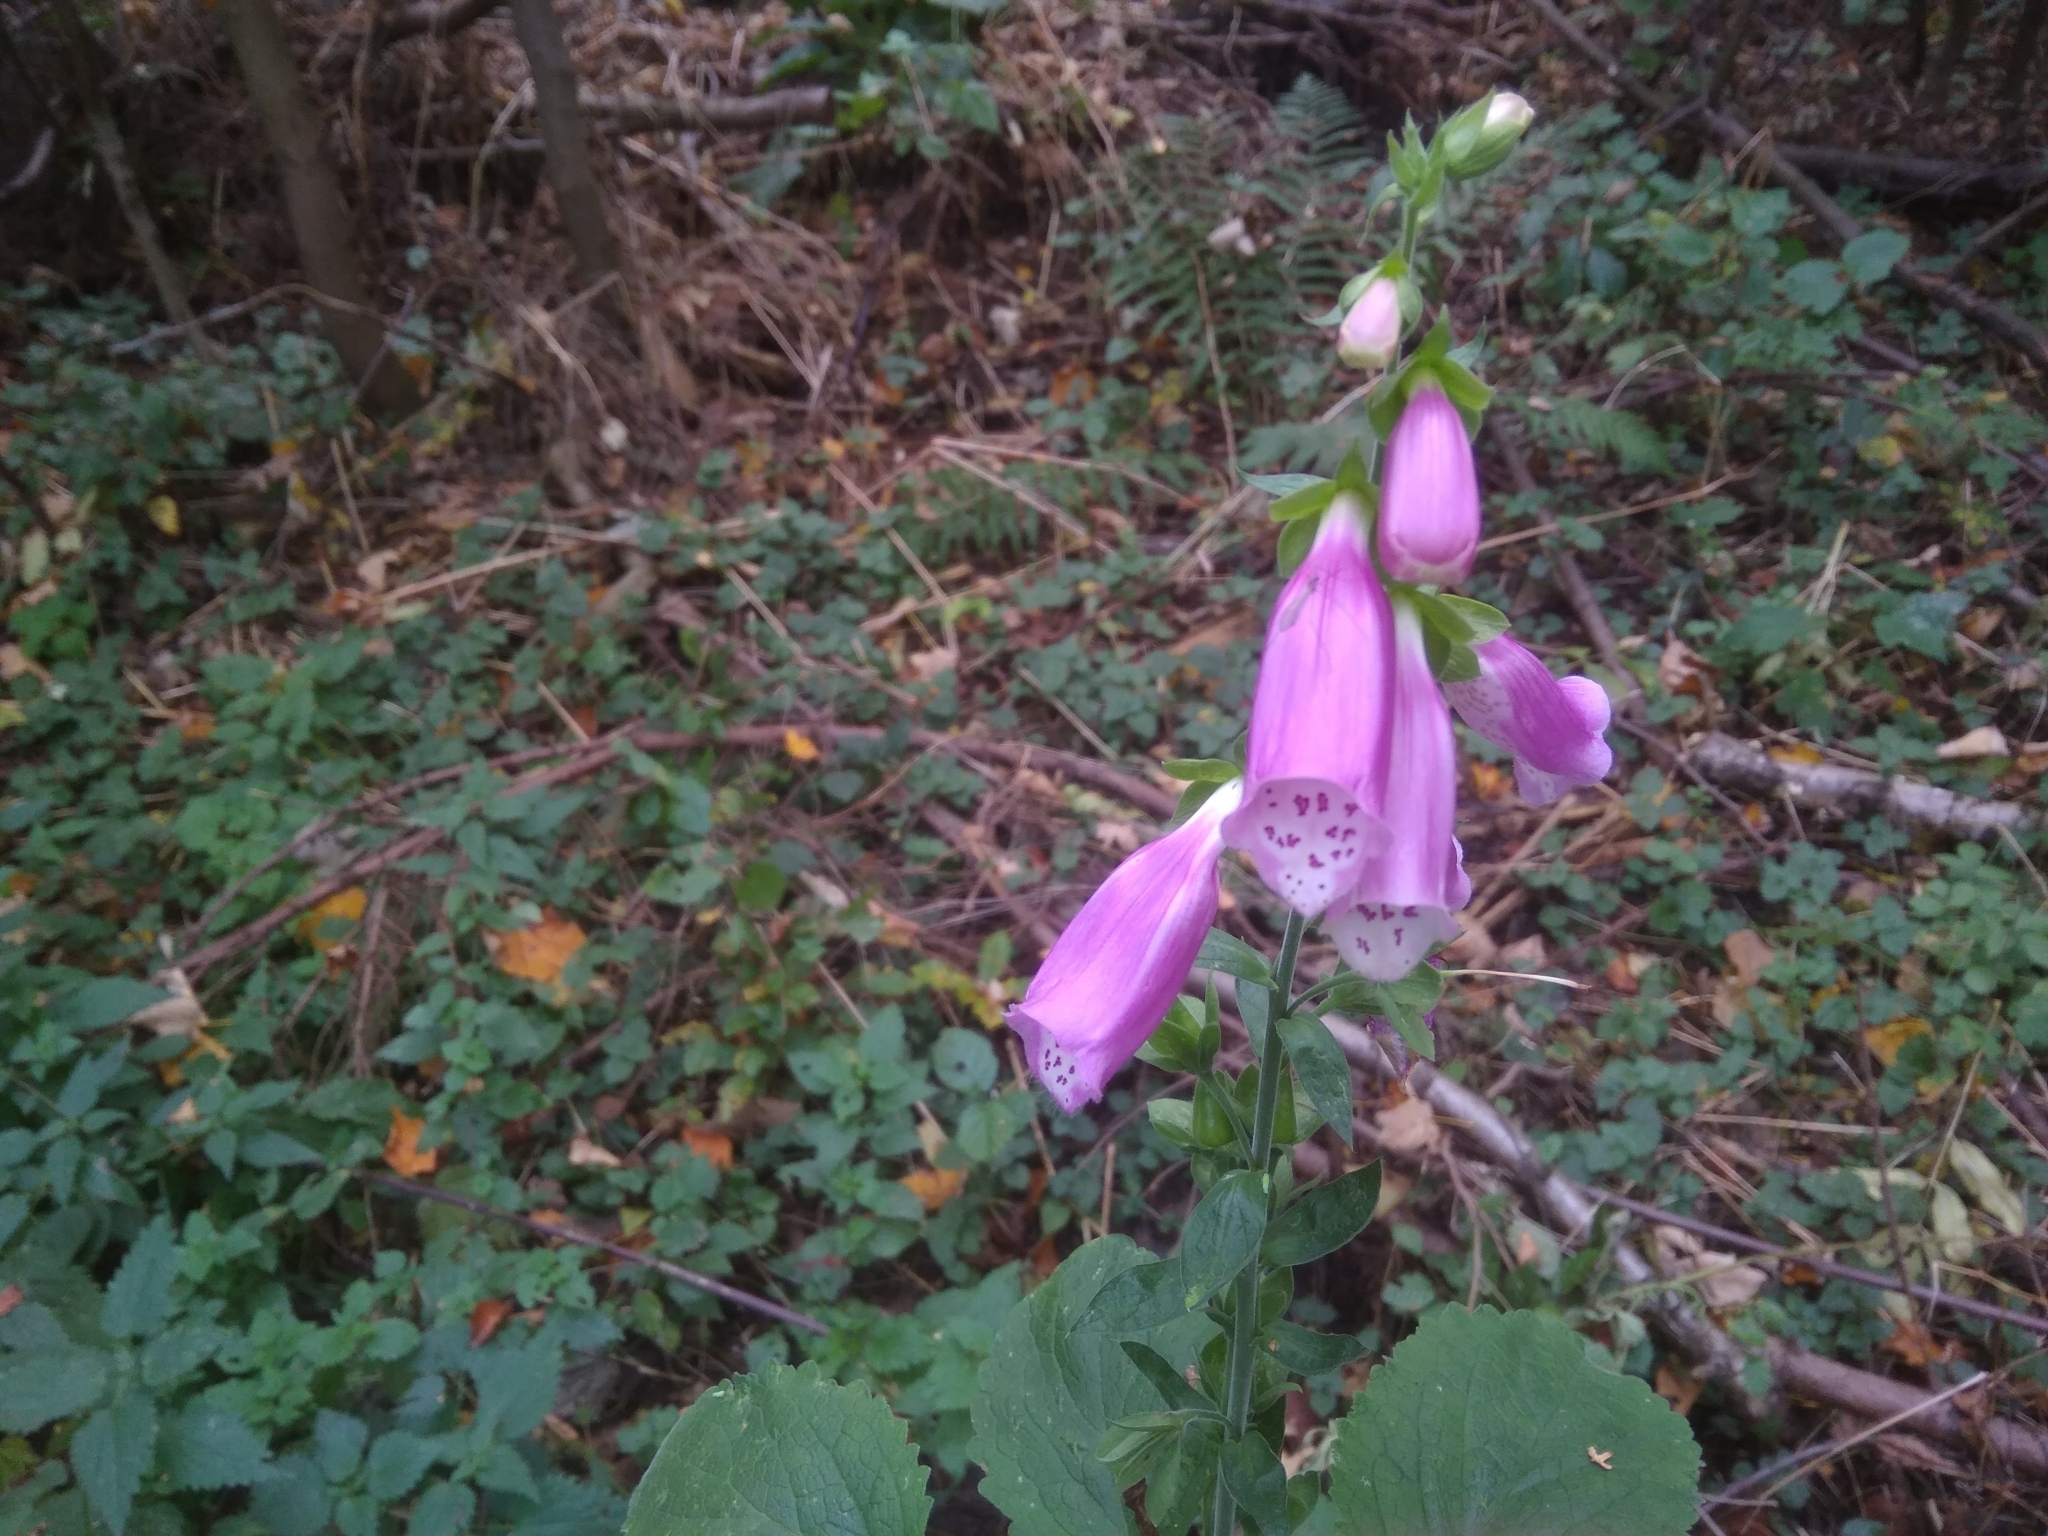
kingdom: Plantae
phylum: Tracheophyta
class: Magnoliopsida
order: Lamiales
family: Plantaginaceae
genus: Digitalis
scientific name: Digitalis purpurea
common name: Foxglove
